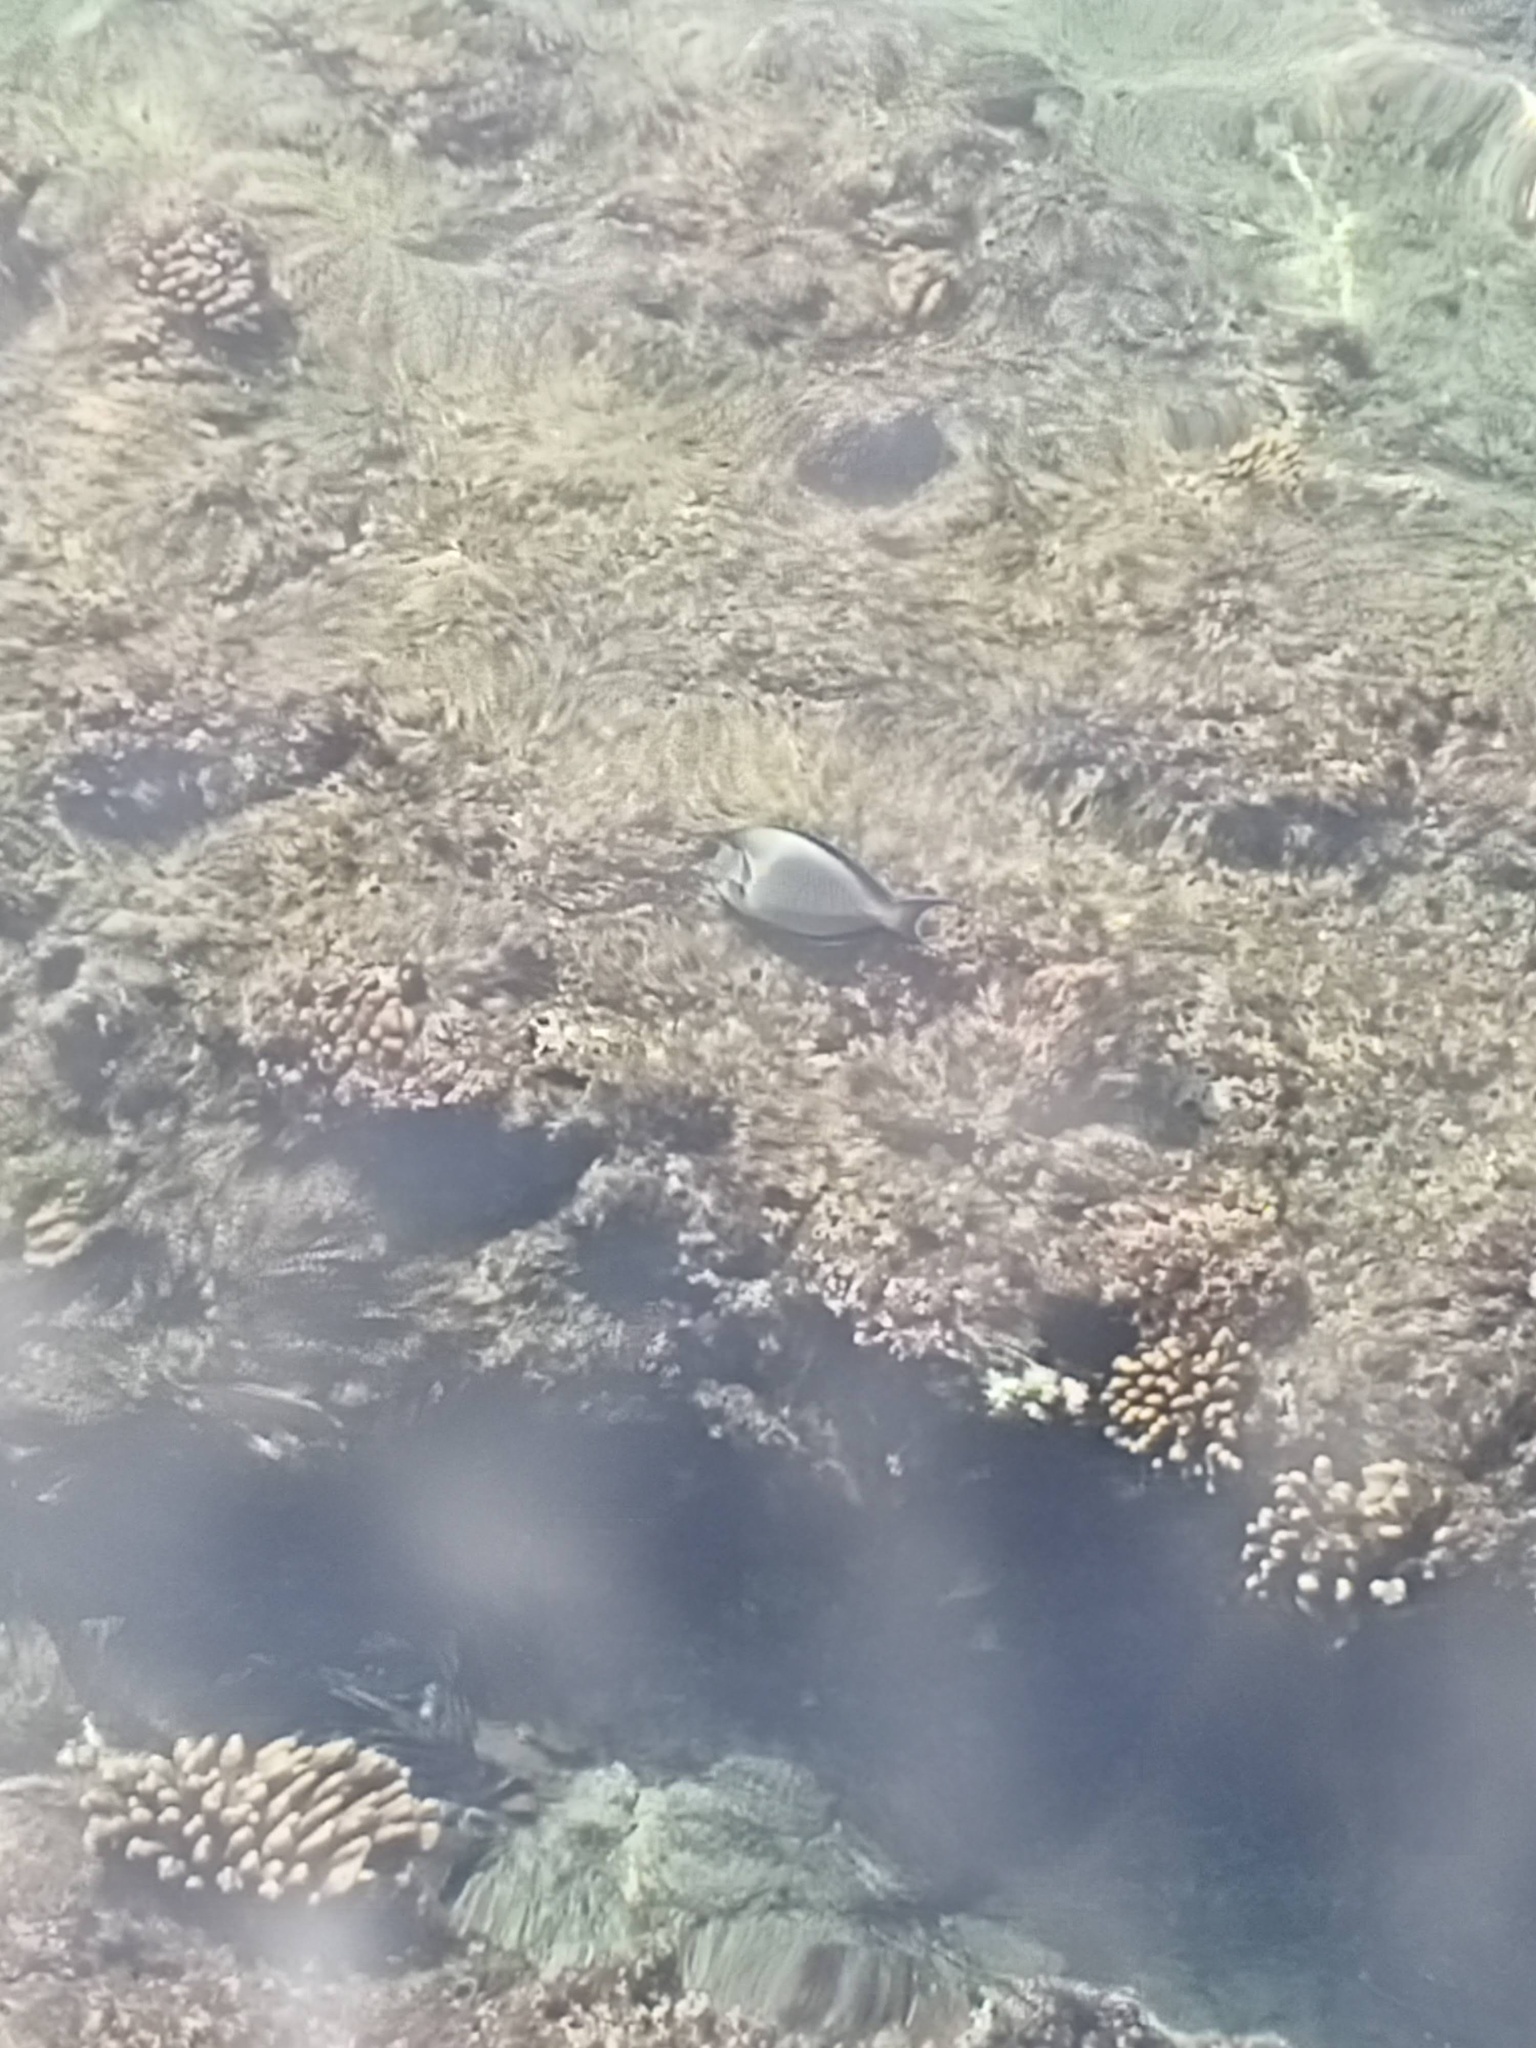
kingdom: Animalia
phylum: Chordata
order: Perciformes
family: Acanthuridae
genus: Acanthurus
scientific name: Acanthurus sohal
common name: Red sea surgeonfish
